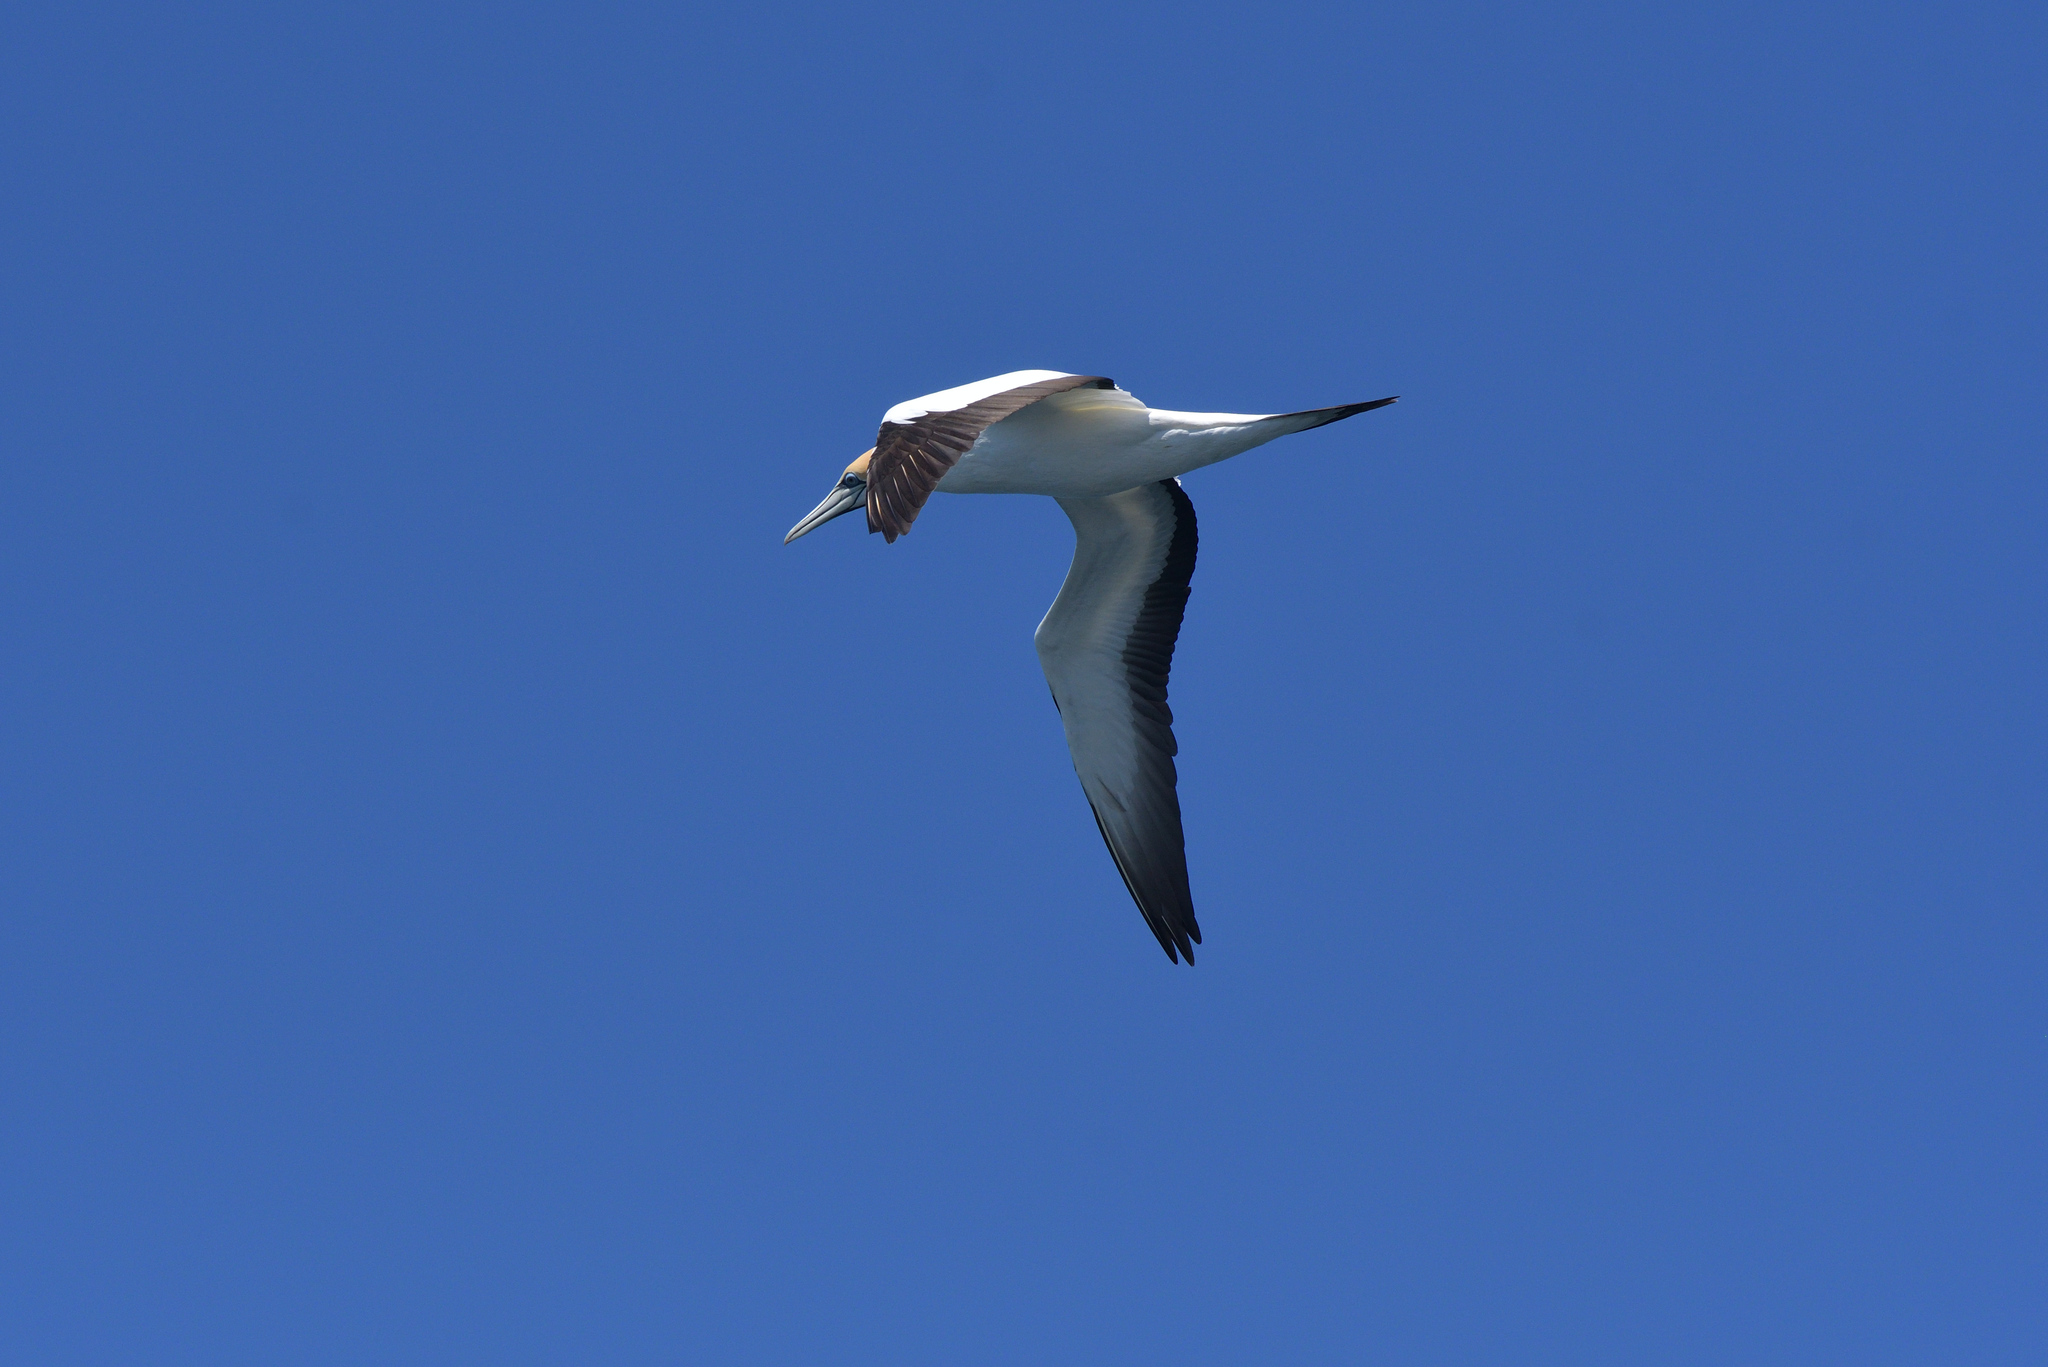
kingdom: Animalia
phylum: Chordata
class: Aves
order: Suliformes
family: Sulidae
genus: Morus
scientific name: Morus serrator
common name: Australasian gannet
